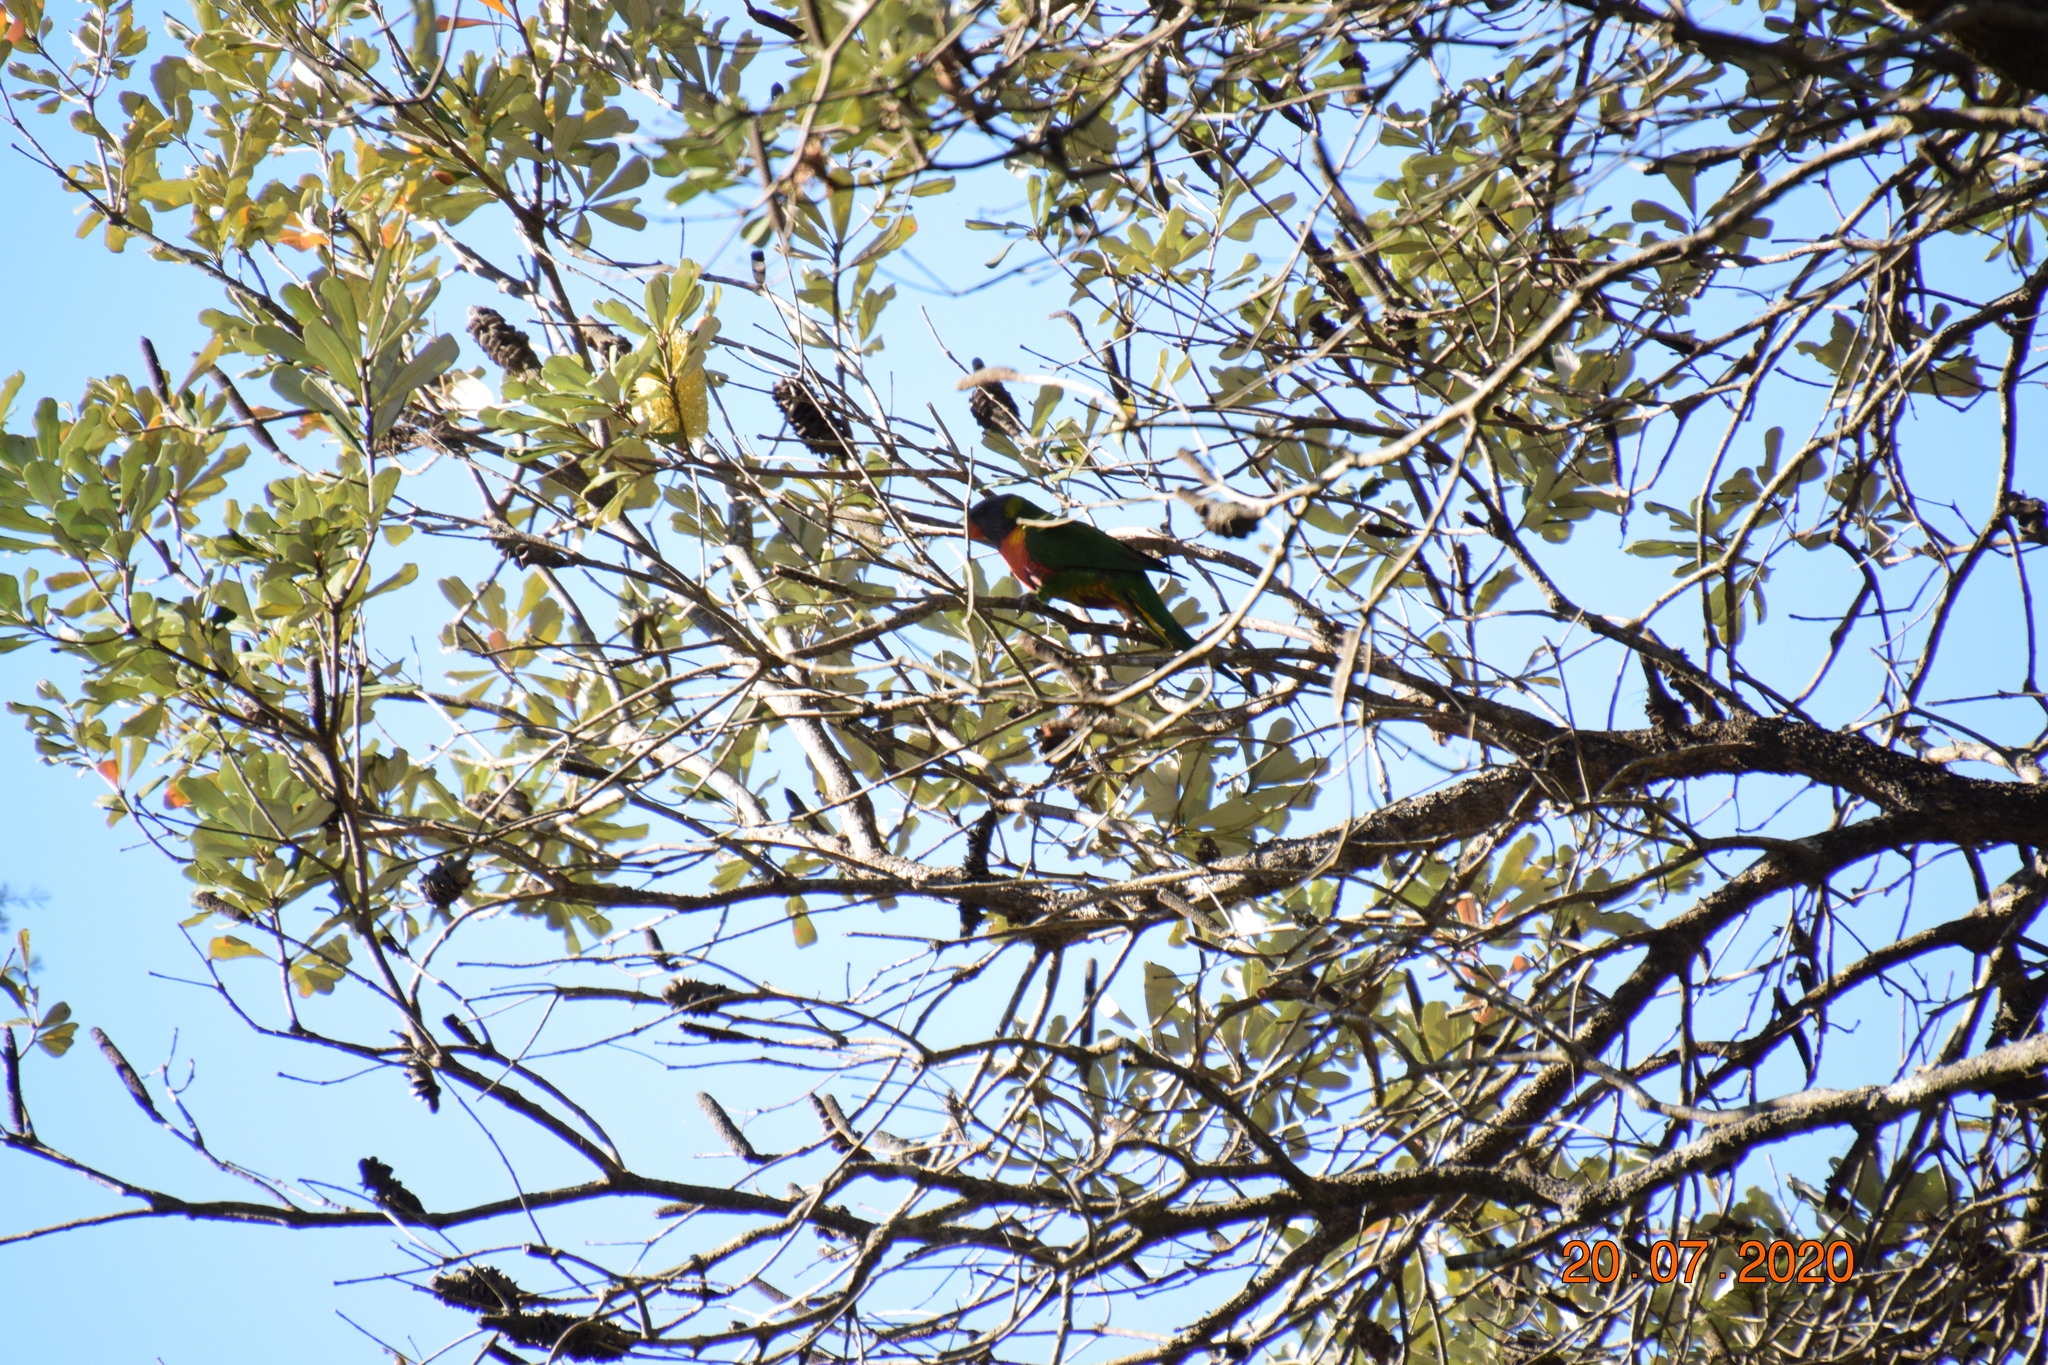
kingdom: Animalia
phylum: Chordata
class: Aves
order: Psittaciformes
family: Psittacidae
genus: Trichoglossus
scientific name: Trichoglossus haematodus
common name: Coconut lorikeet
